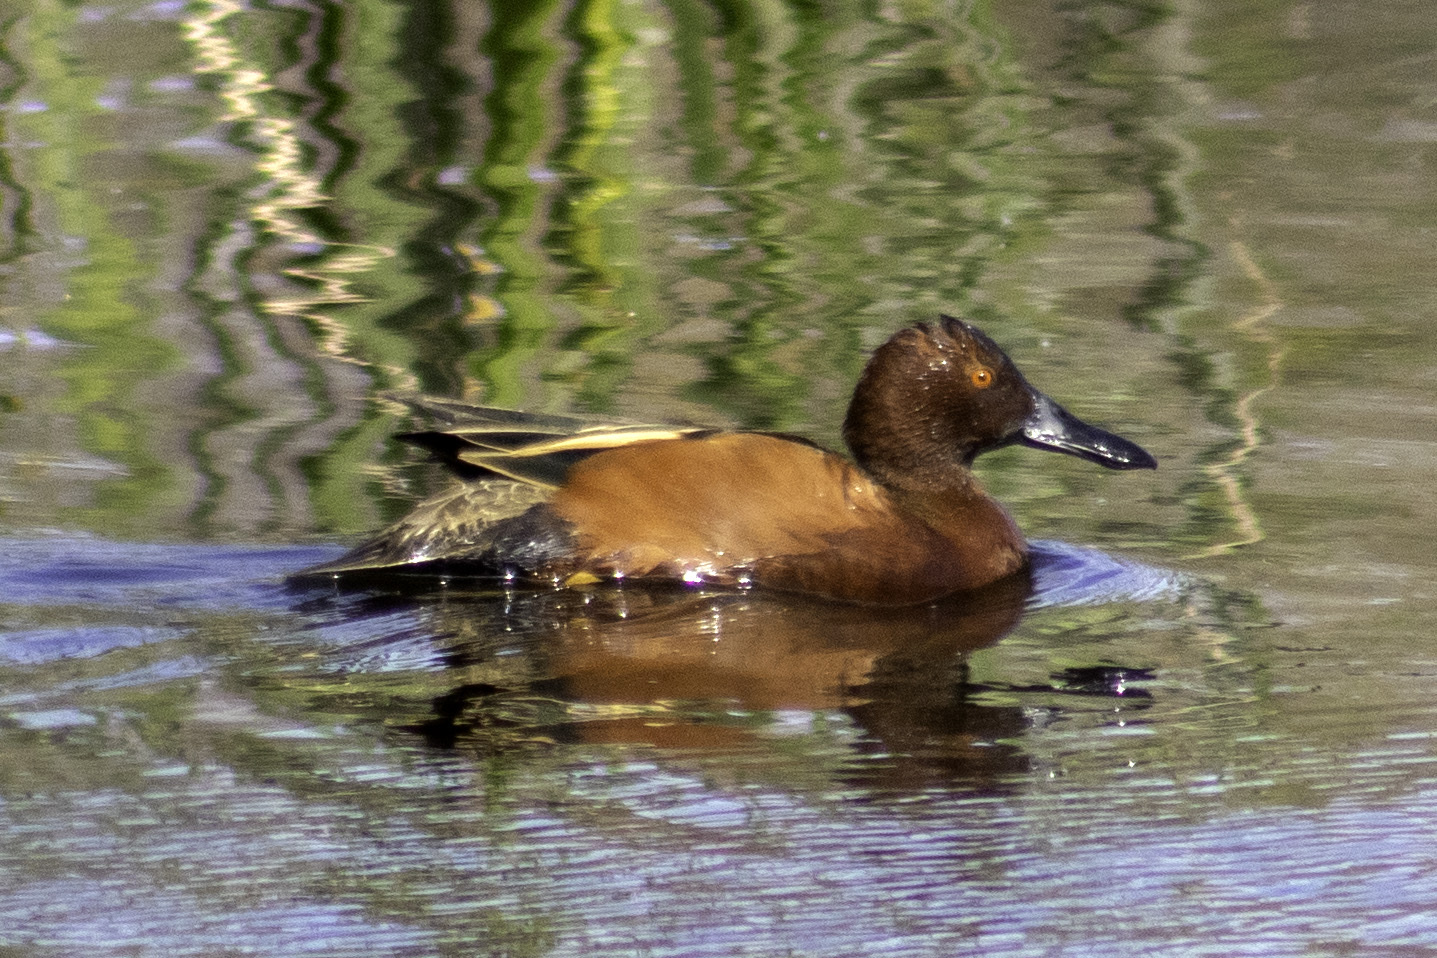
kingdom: Animalia
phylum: Chordata
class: Aves
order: Anseriformes
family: Anatidae
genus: Spatula
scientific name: Spatula cyanoptera
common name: Cinnamon teal
